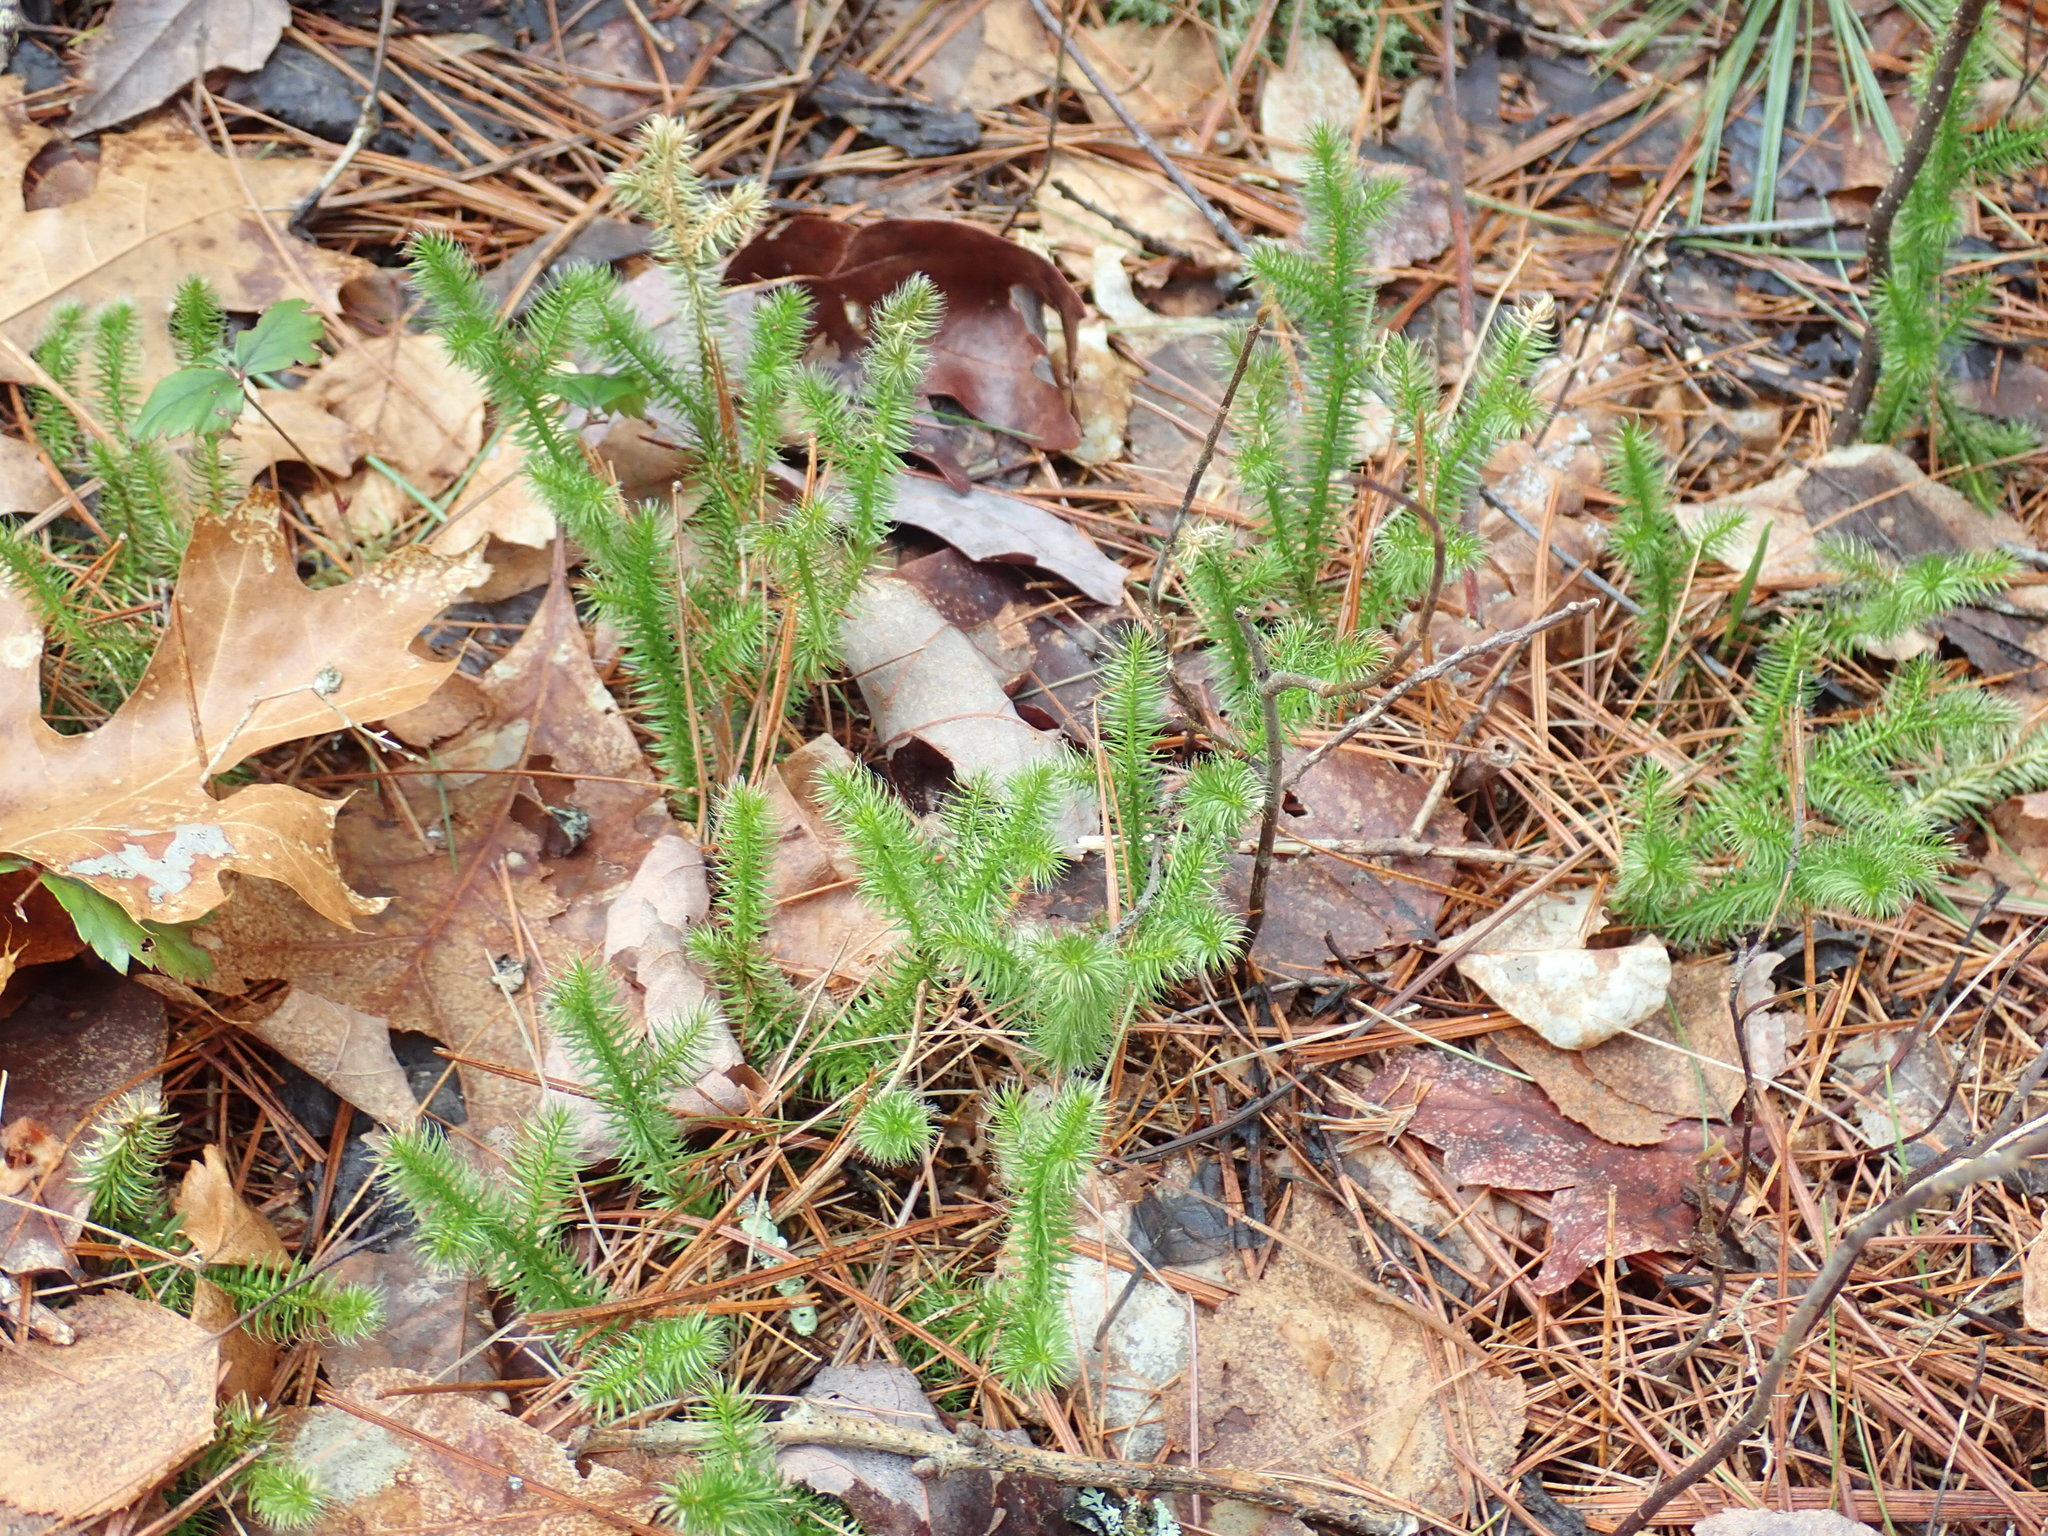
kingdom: Plantae
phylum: Tracheophyta
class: Lycopodiopsida
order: Lycopodiales
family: Lycopodiaceae
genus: Lycopodium
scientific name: Lycopodium clavatum
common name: Stag's-horn clubmoss
